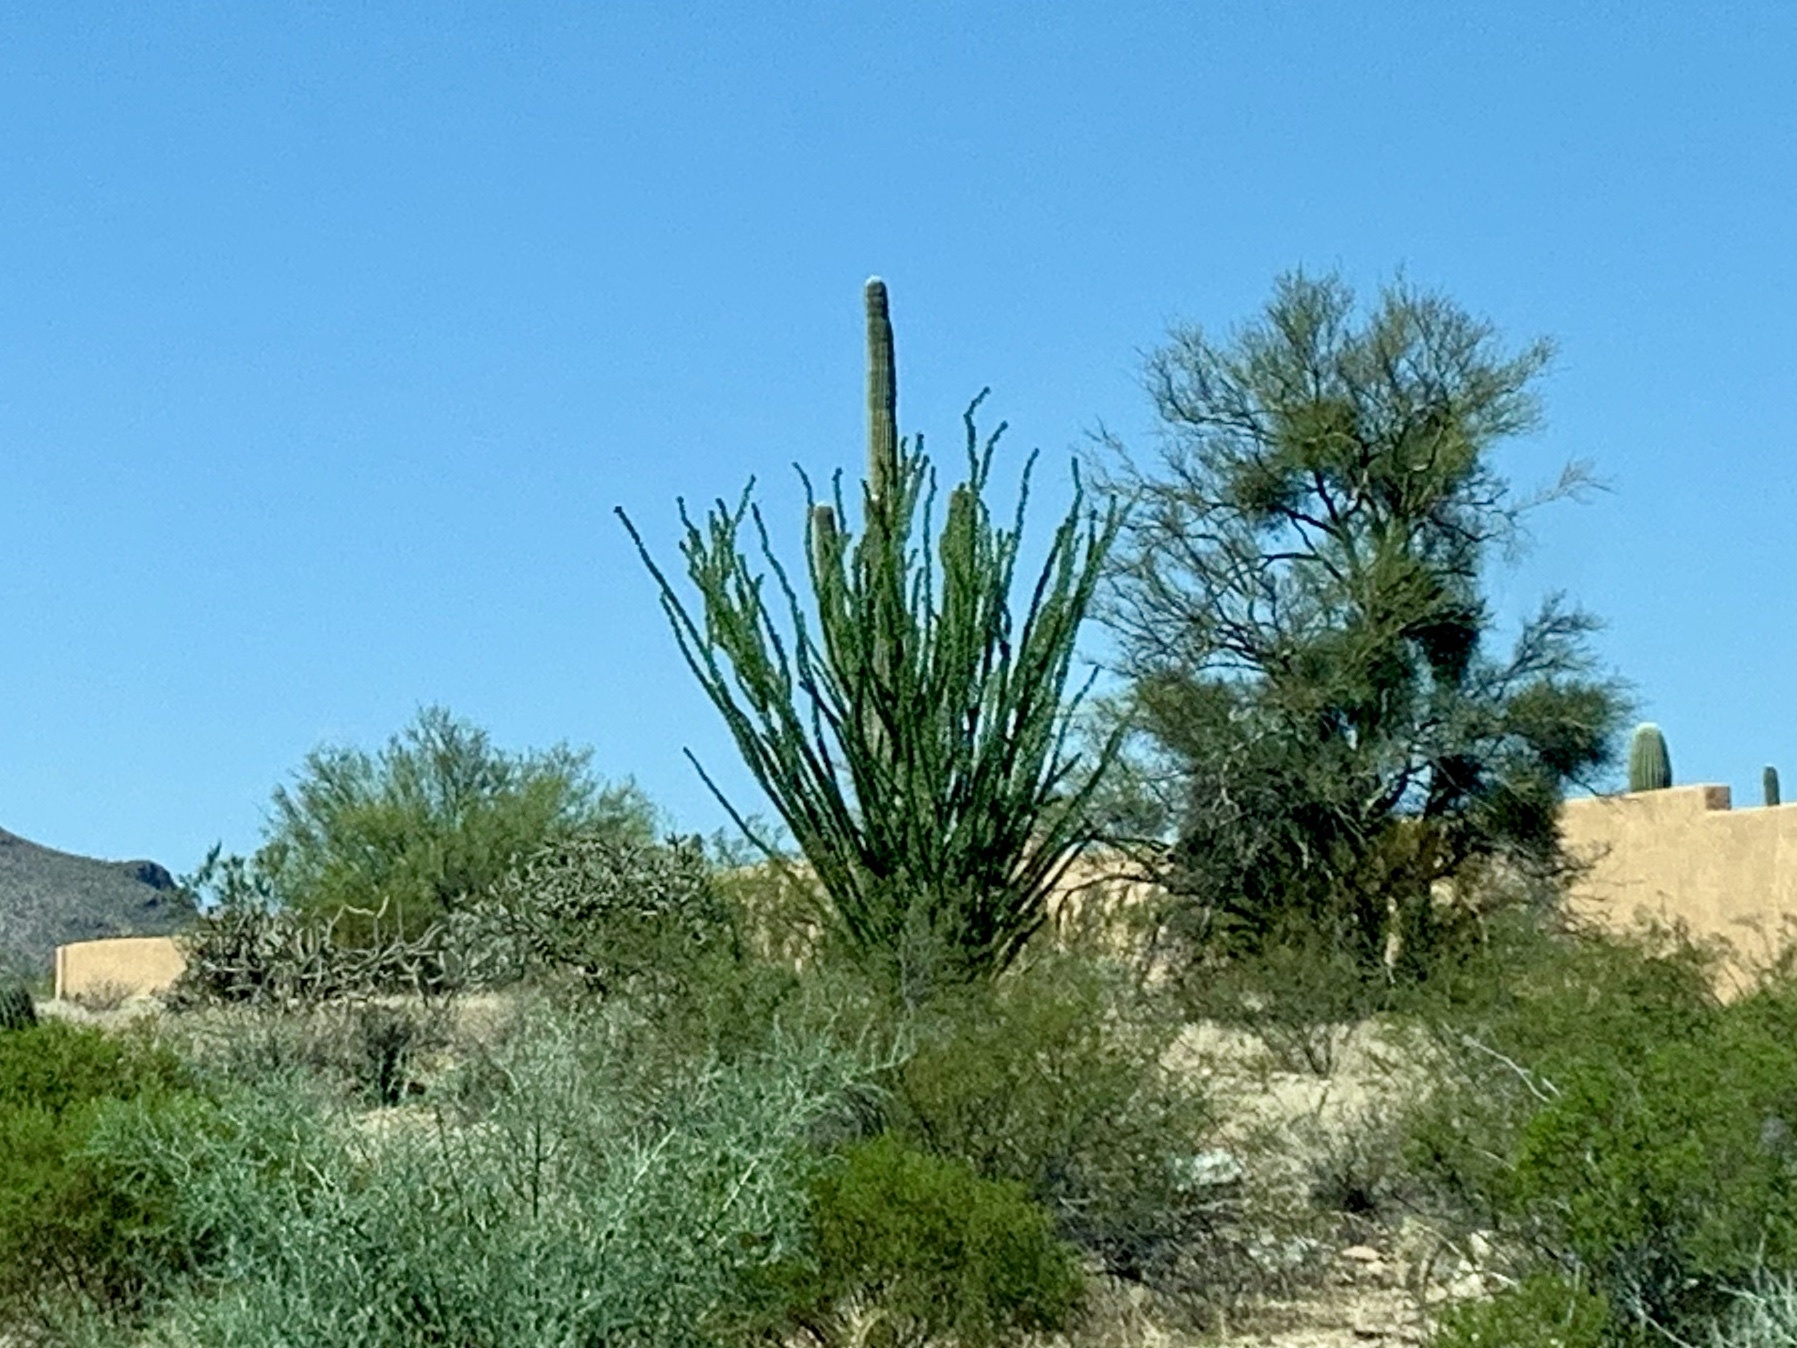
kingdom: Plantae
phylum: Tracheophyta
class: Magnoliopsida
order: Ericales
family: Fouquieriaceae
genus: Fouquieria
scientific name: Fouquieria splendens
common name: Vine-cactus
